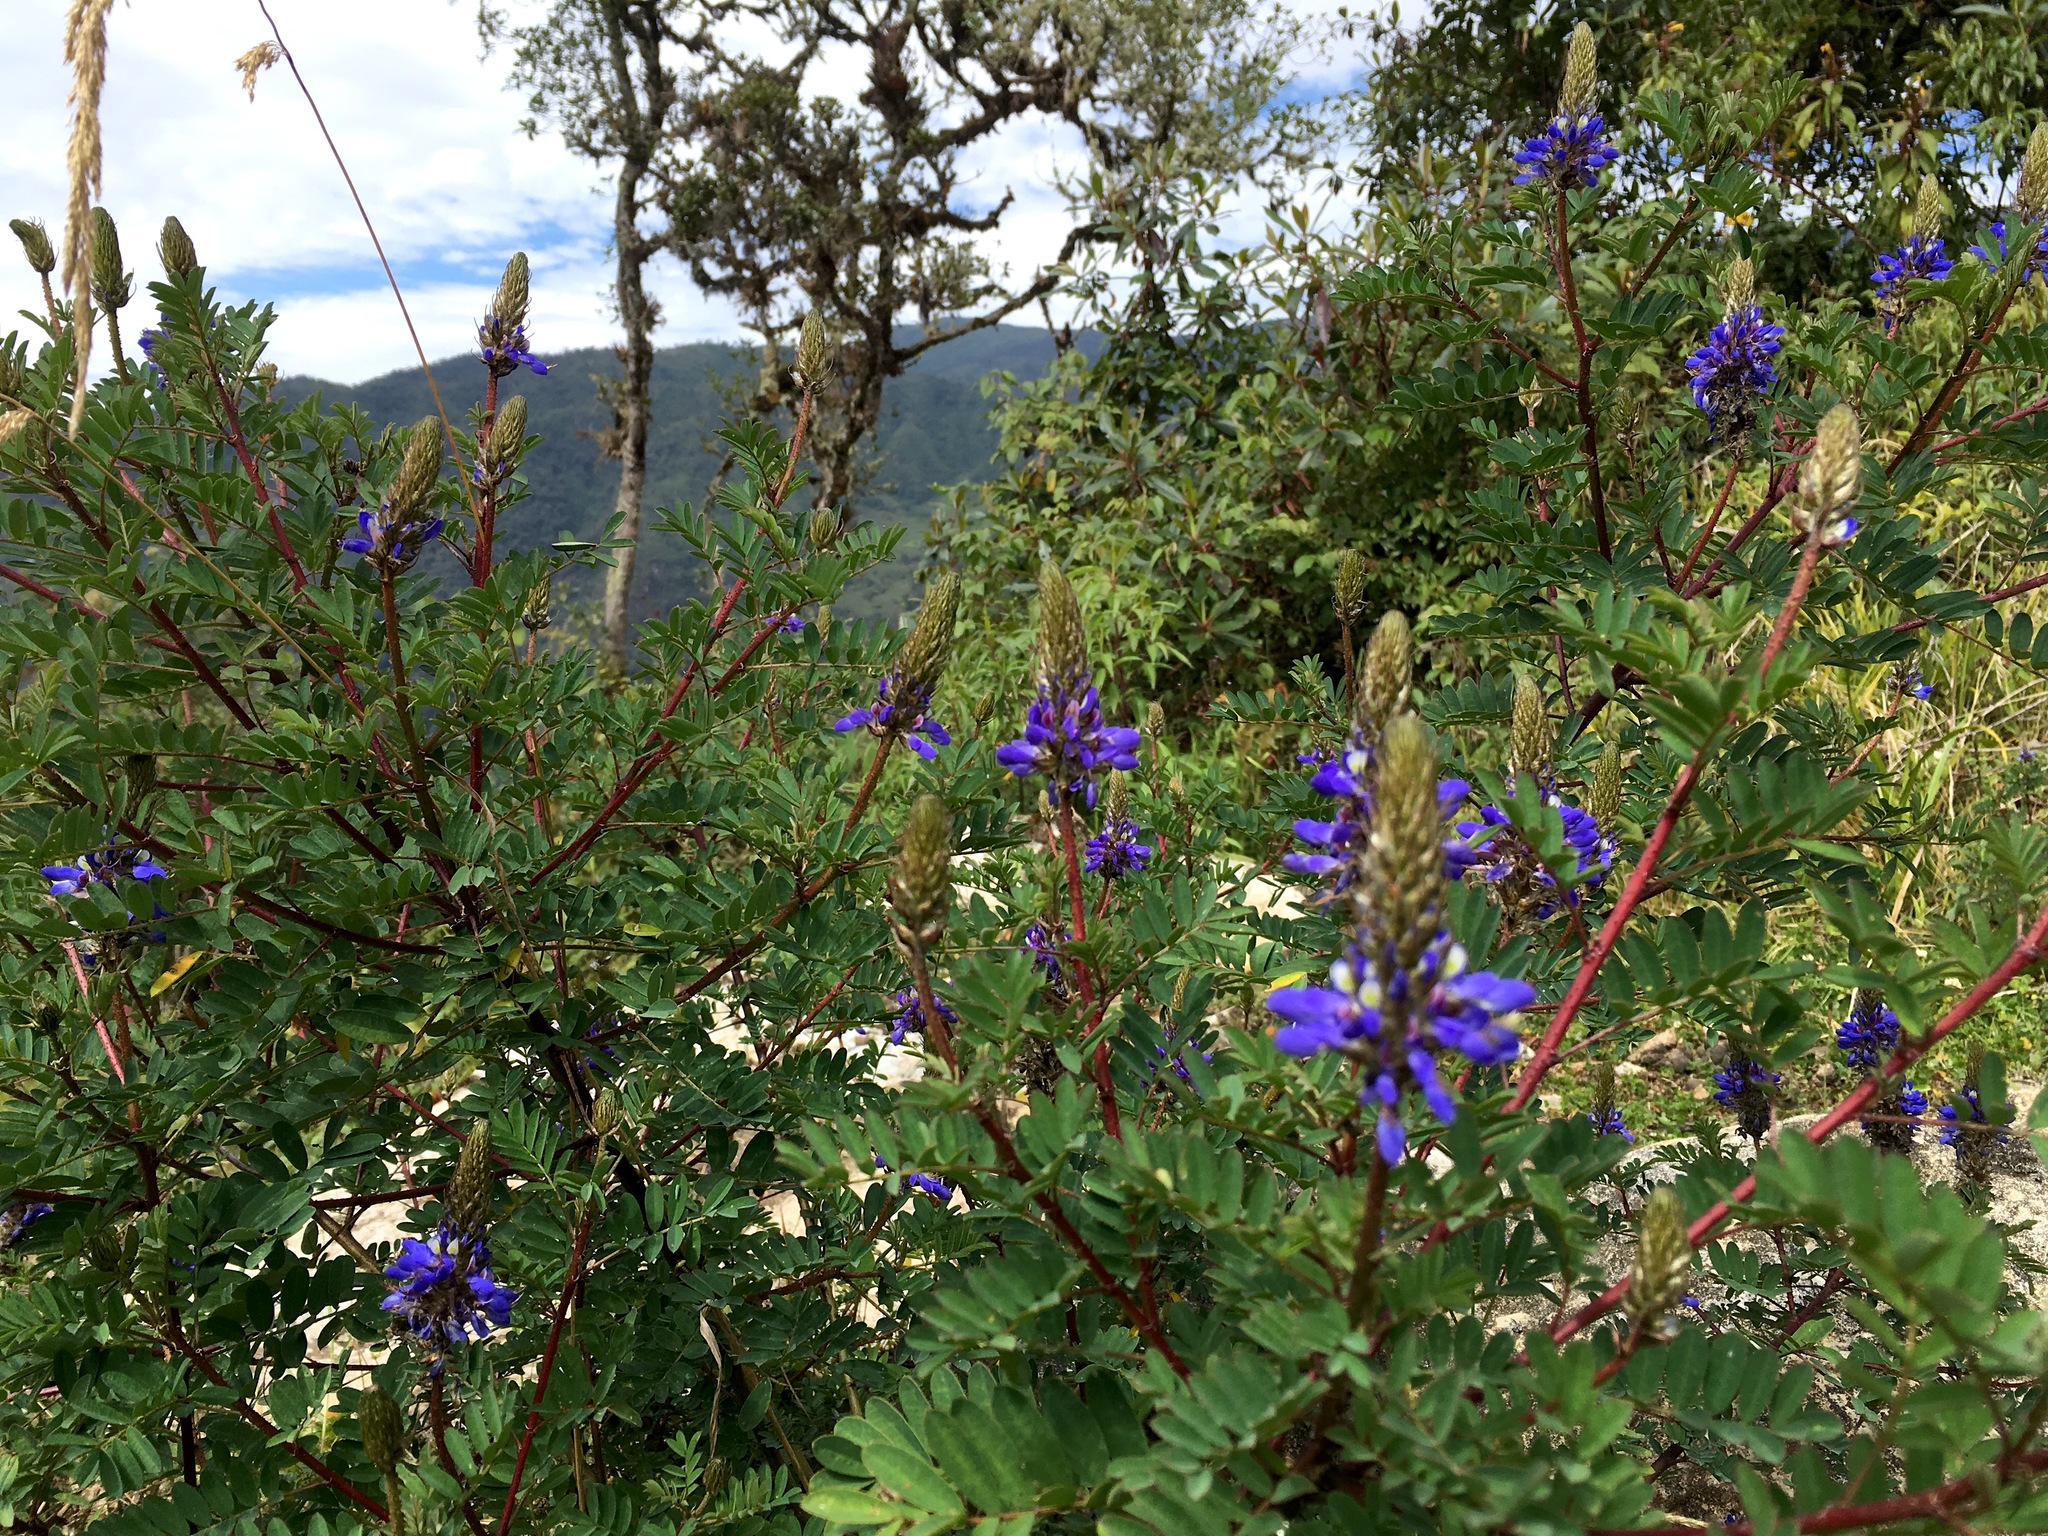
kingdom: Plantae
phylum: Tracheophyta
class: Magnoliopsida
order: Fabales
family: Fabaceae
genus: Dalea
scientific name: Dalea coerulea
